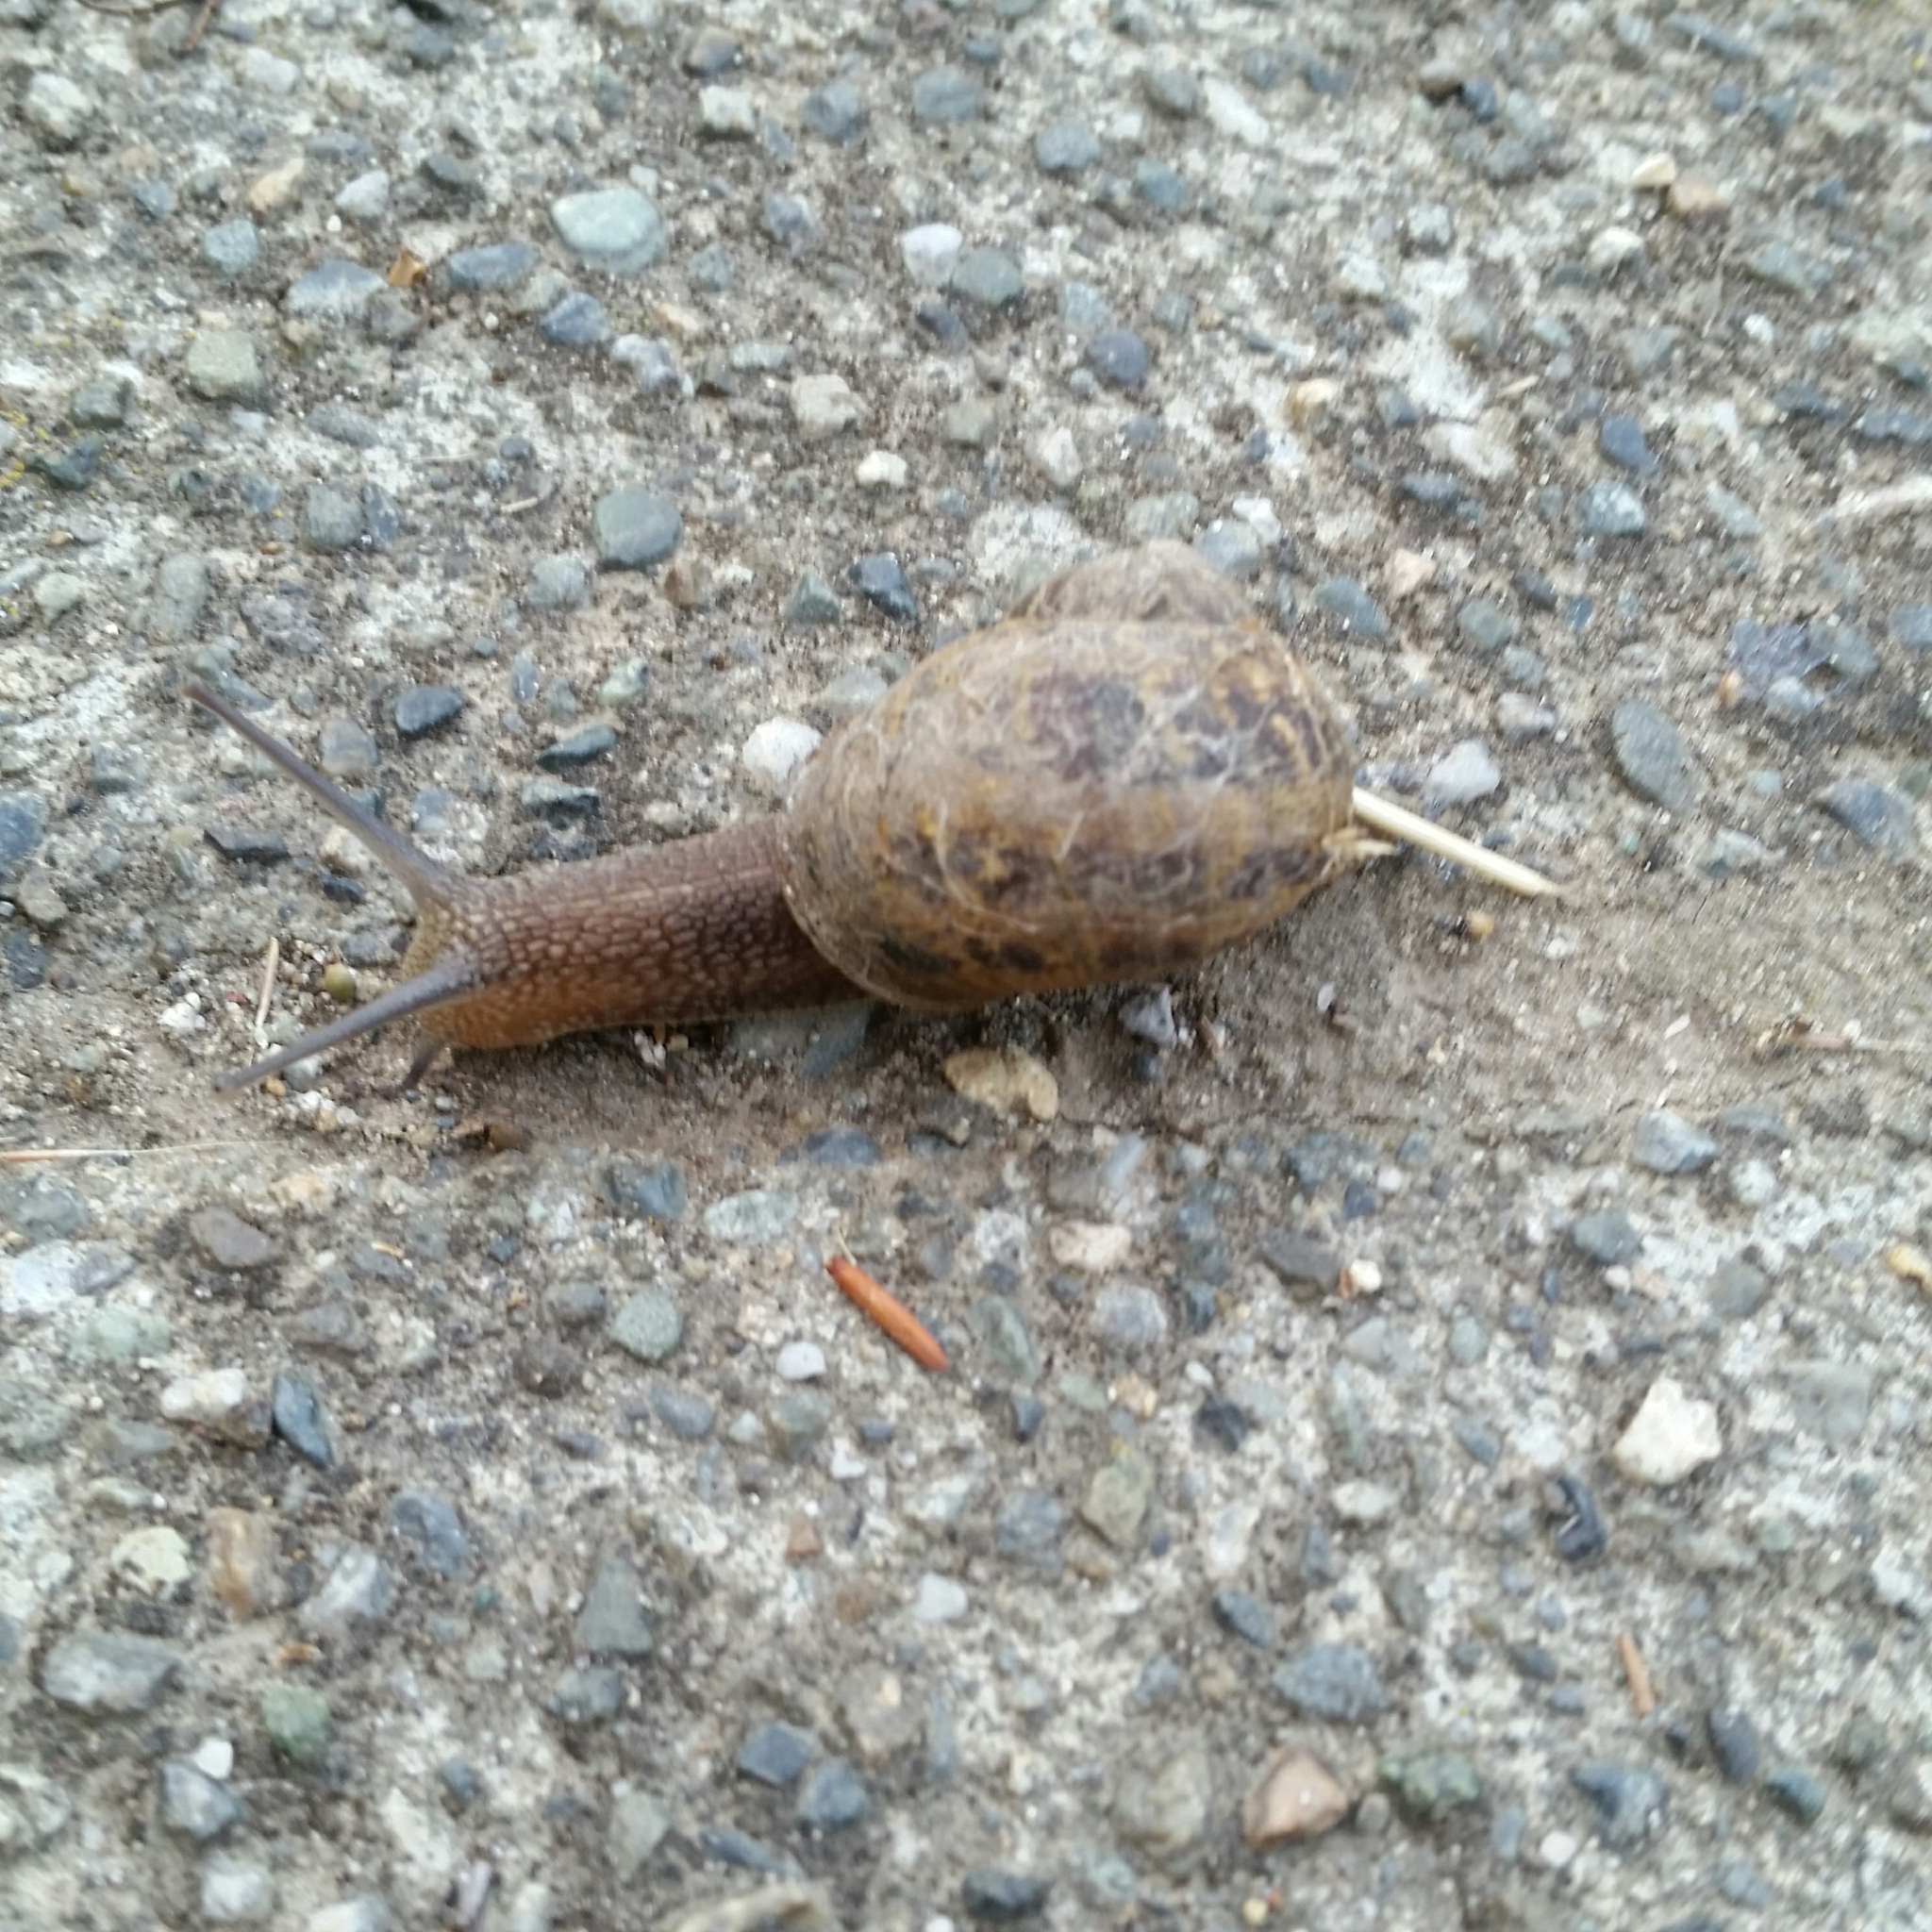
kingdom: Animalia
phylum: Mollusca
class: Gastropoda
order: Stylommatophora
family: Helicidae
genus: Cornu
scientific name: Cornu aspersum
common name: Brown garden snail
